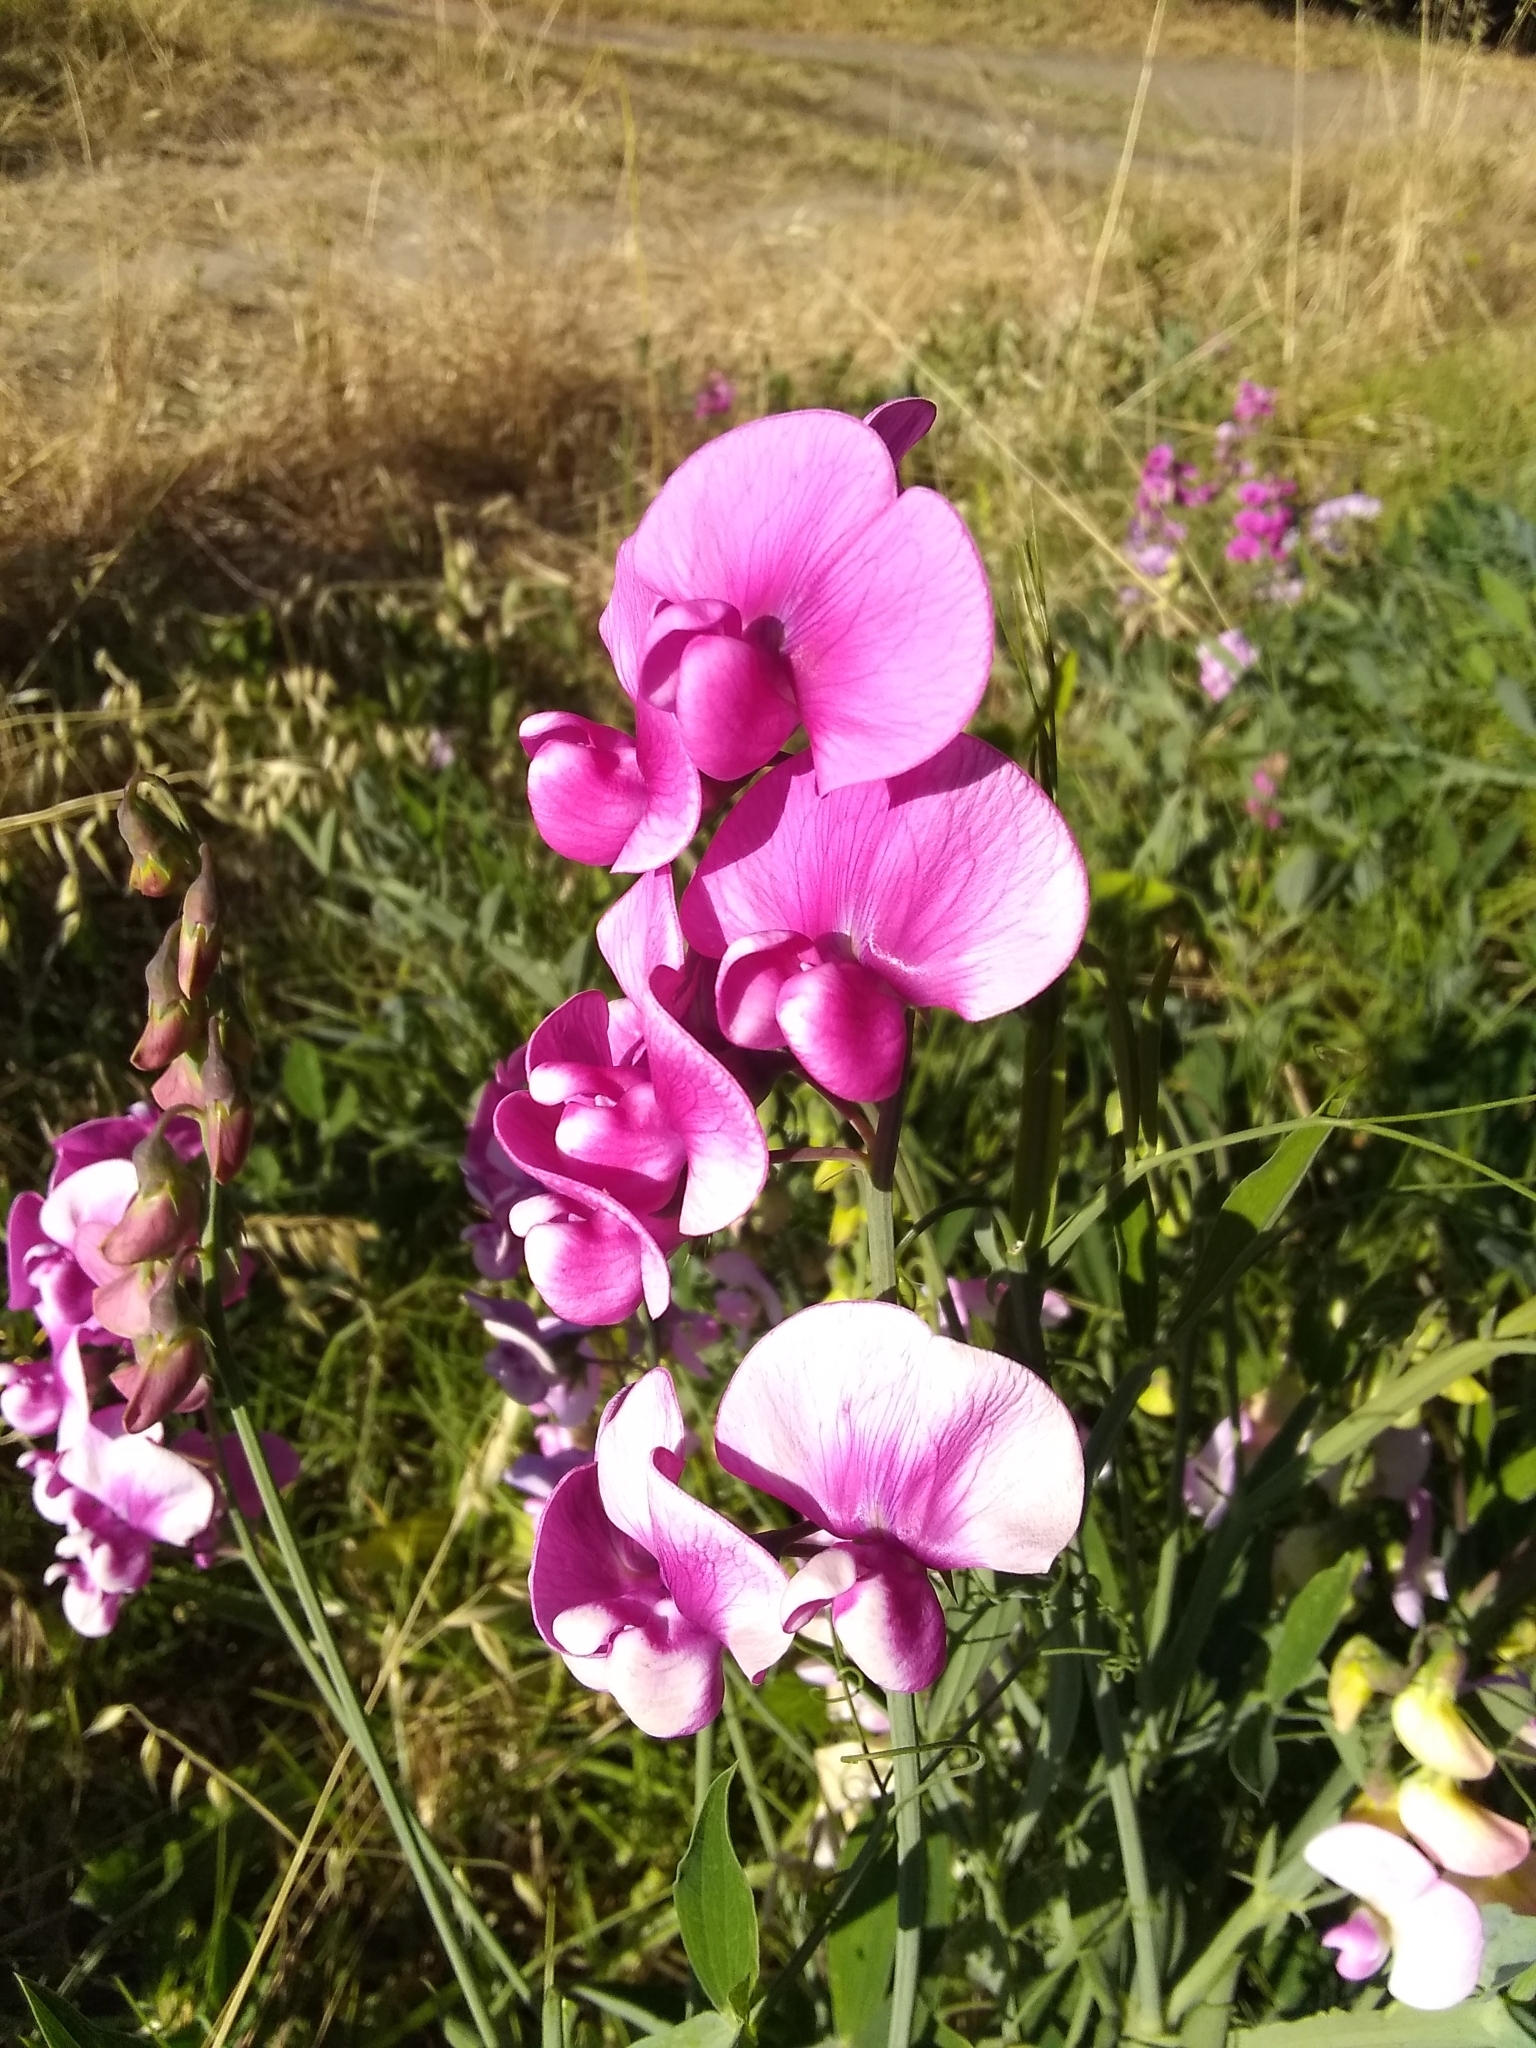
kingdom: Plantae
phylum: Tracheophyta
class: Magnoliopsida
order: Fabales
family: Fabaceae
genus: Lathyrus
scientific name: Lathyrus latifolius
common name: Perennial pea
